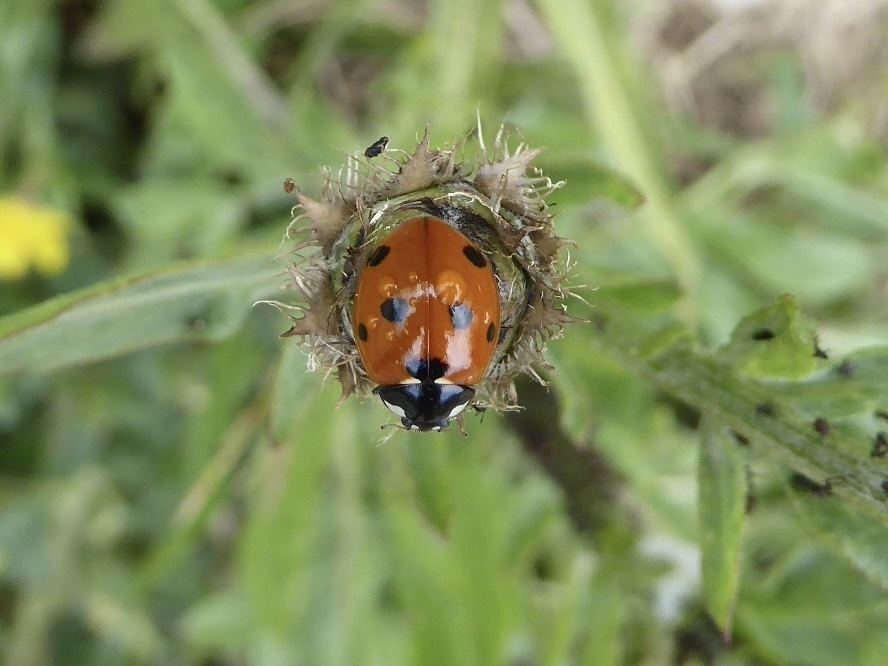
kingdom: Animalia
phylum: Arthropoda
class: Insecta
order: Coleoptera
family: Coccinellidae
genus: Coccinella
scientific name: Coccinella septempunctata
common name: Sevenspotted lady beetle
